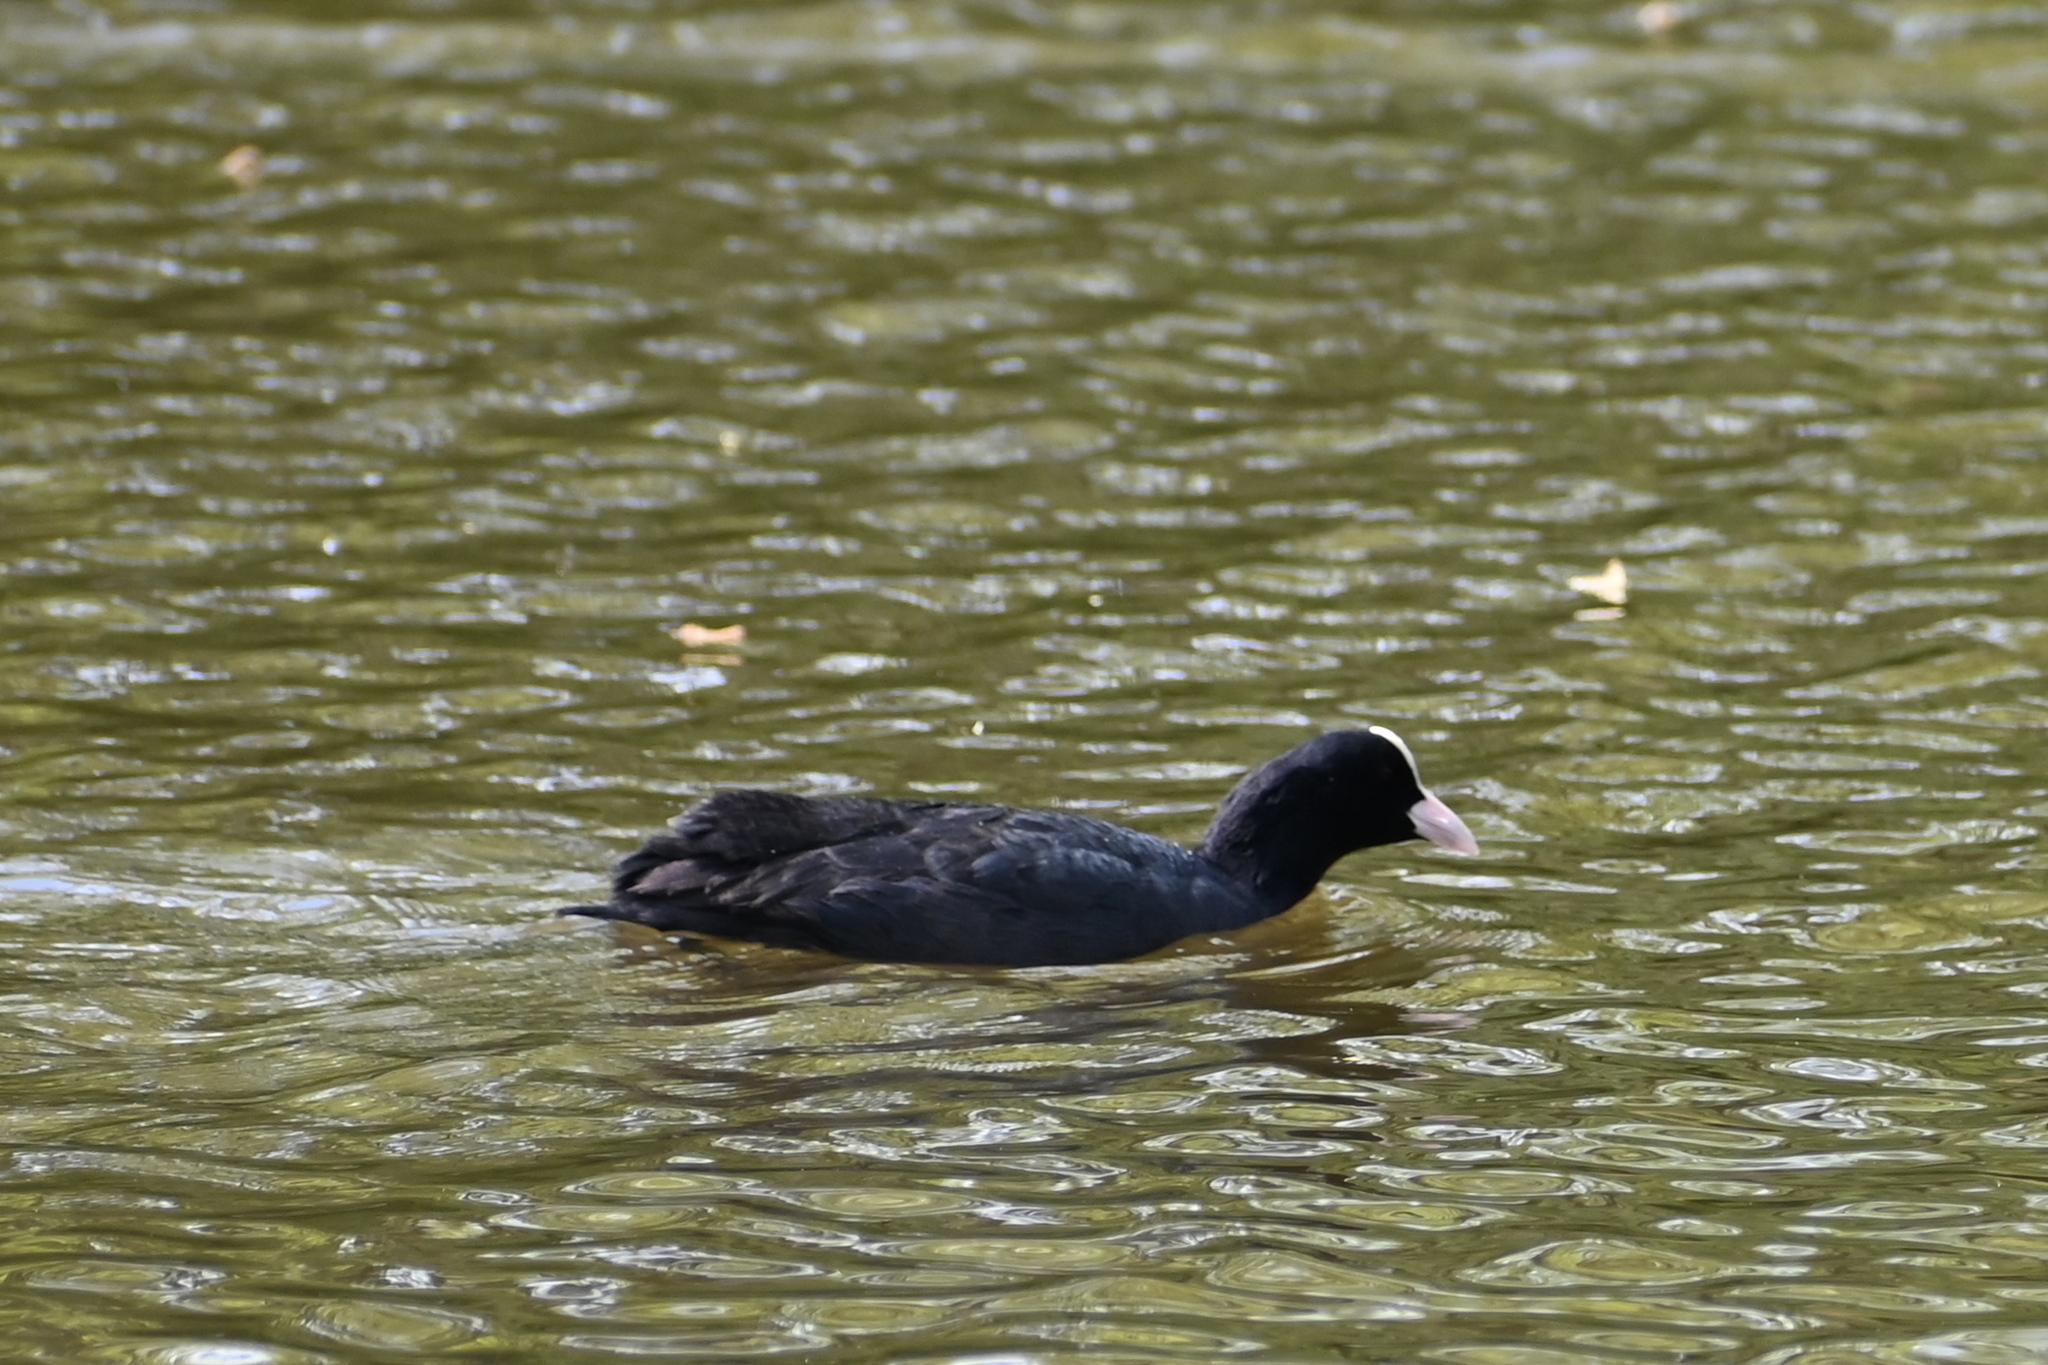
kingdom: Animalia
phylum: Chordata
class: Aves
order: Gruiformes
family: Rallidae
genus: Fulica
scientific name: Fulica atra
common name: Eurasian coot
